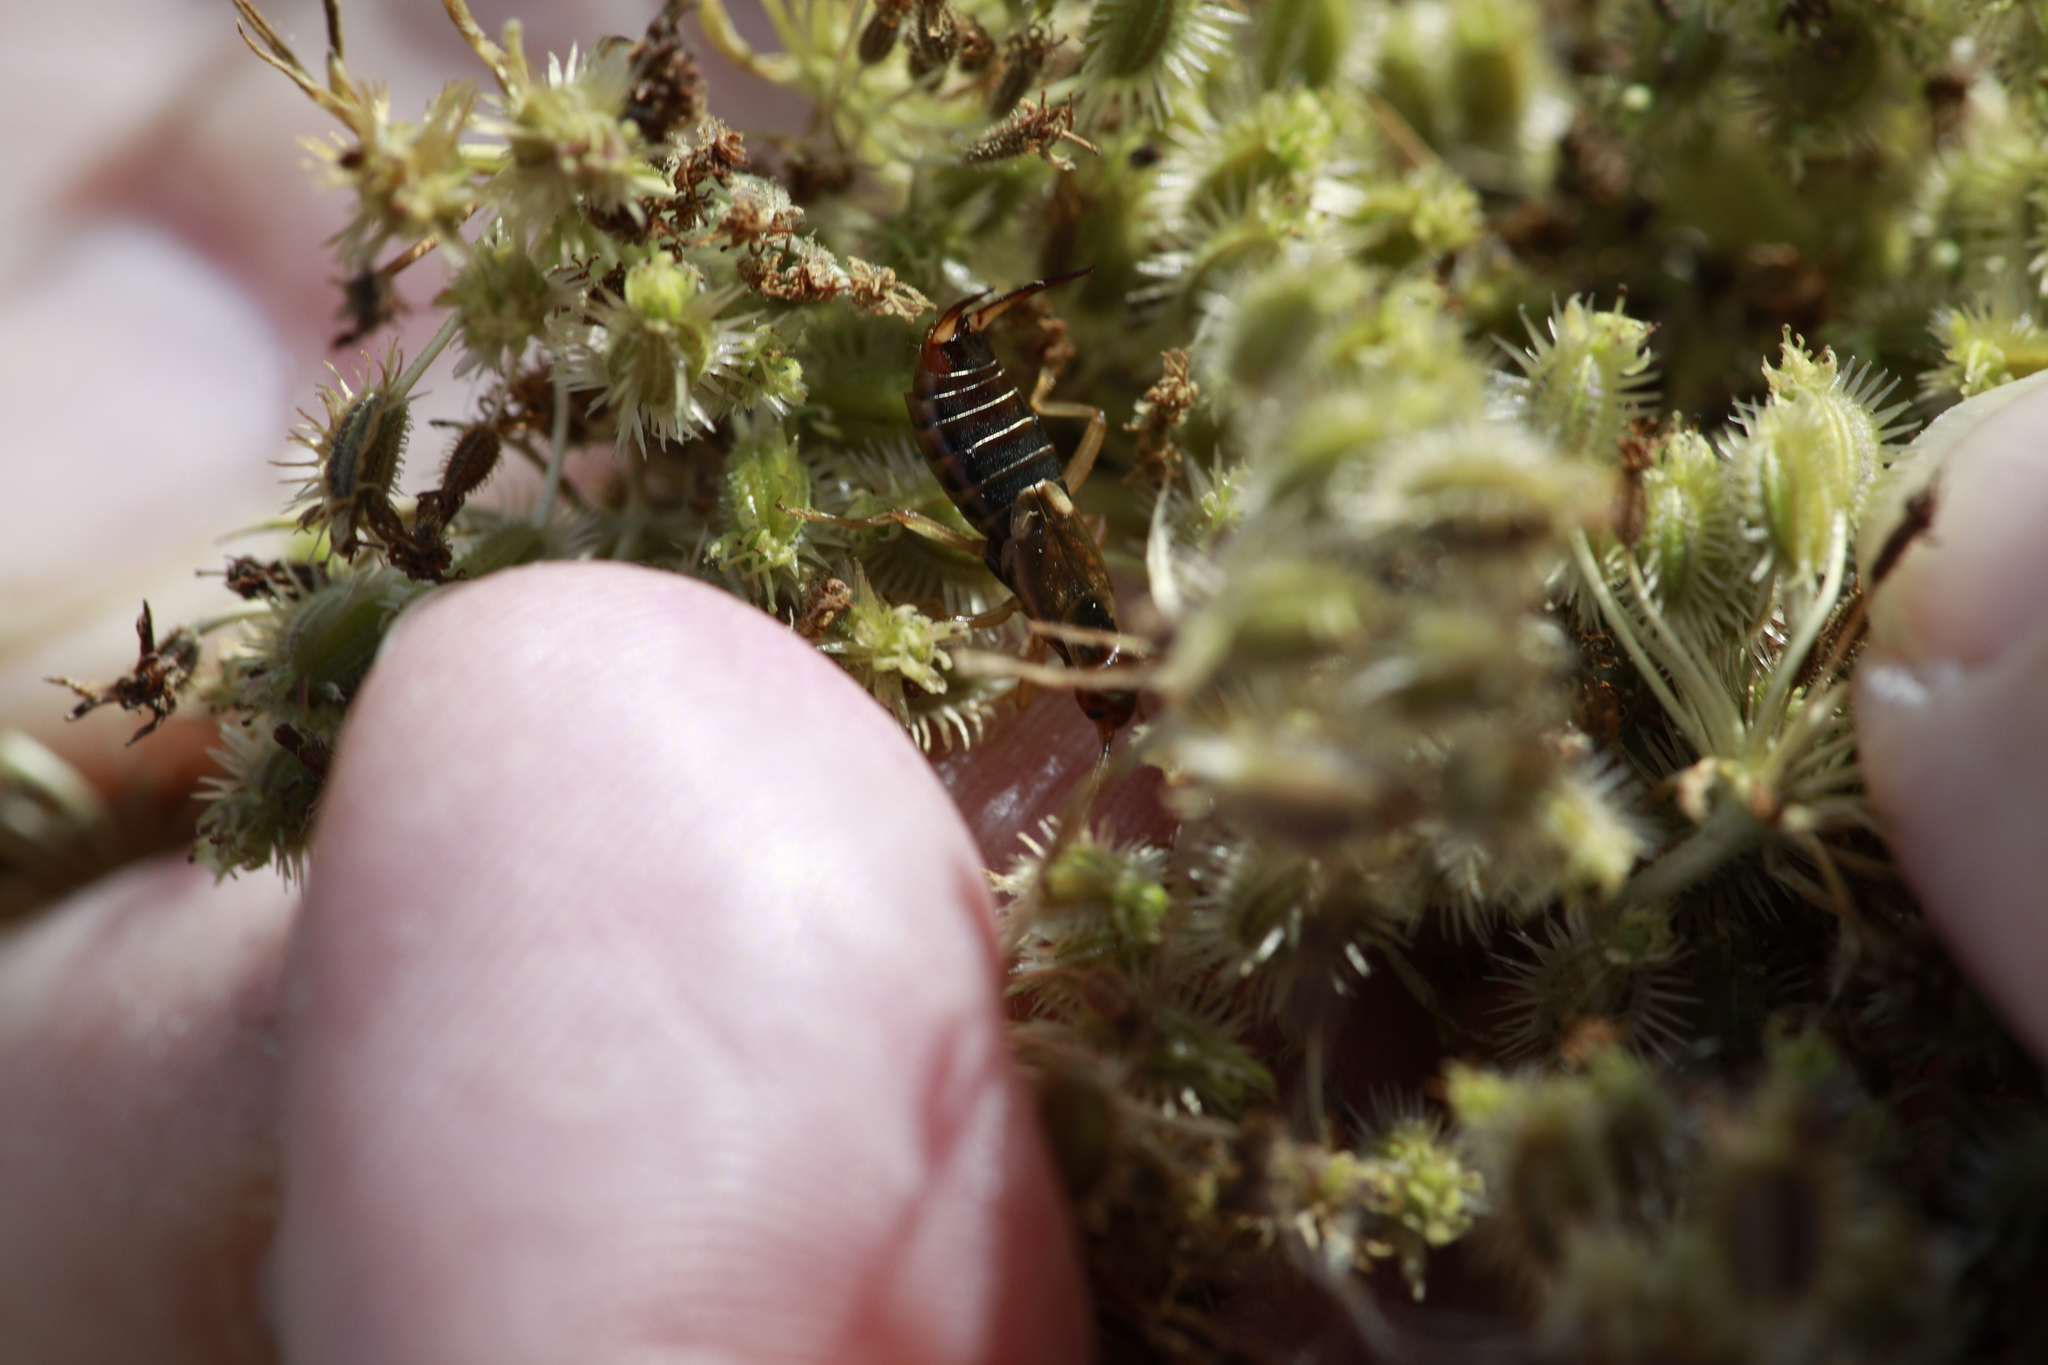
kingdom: Animalia
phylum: Arthropoda
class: Insecta
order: Dermaptera
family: Forficulidae
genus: Forficula
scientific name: Forficula
